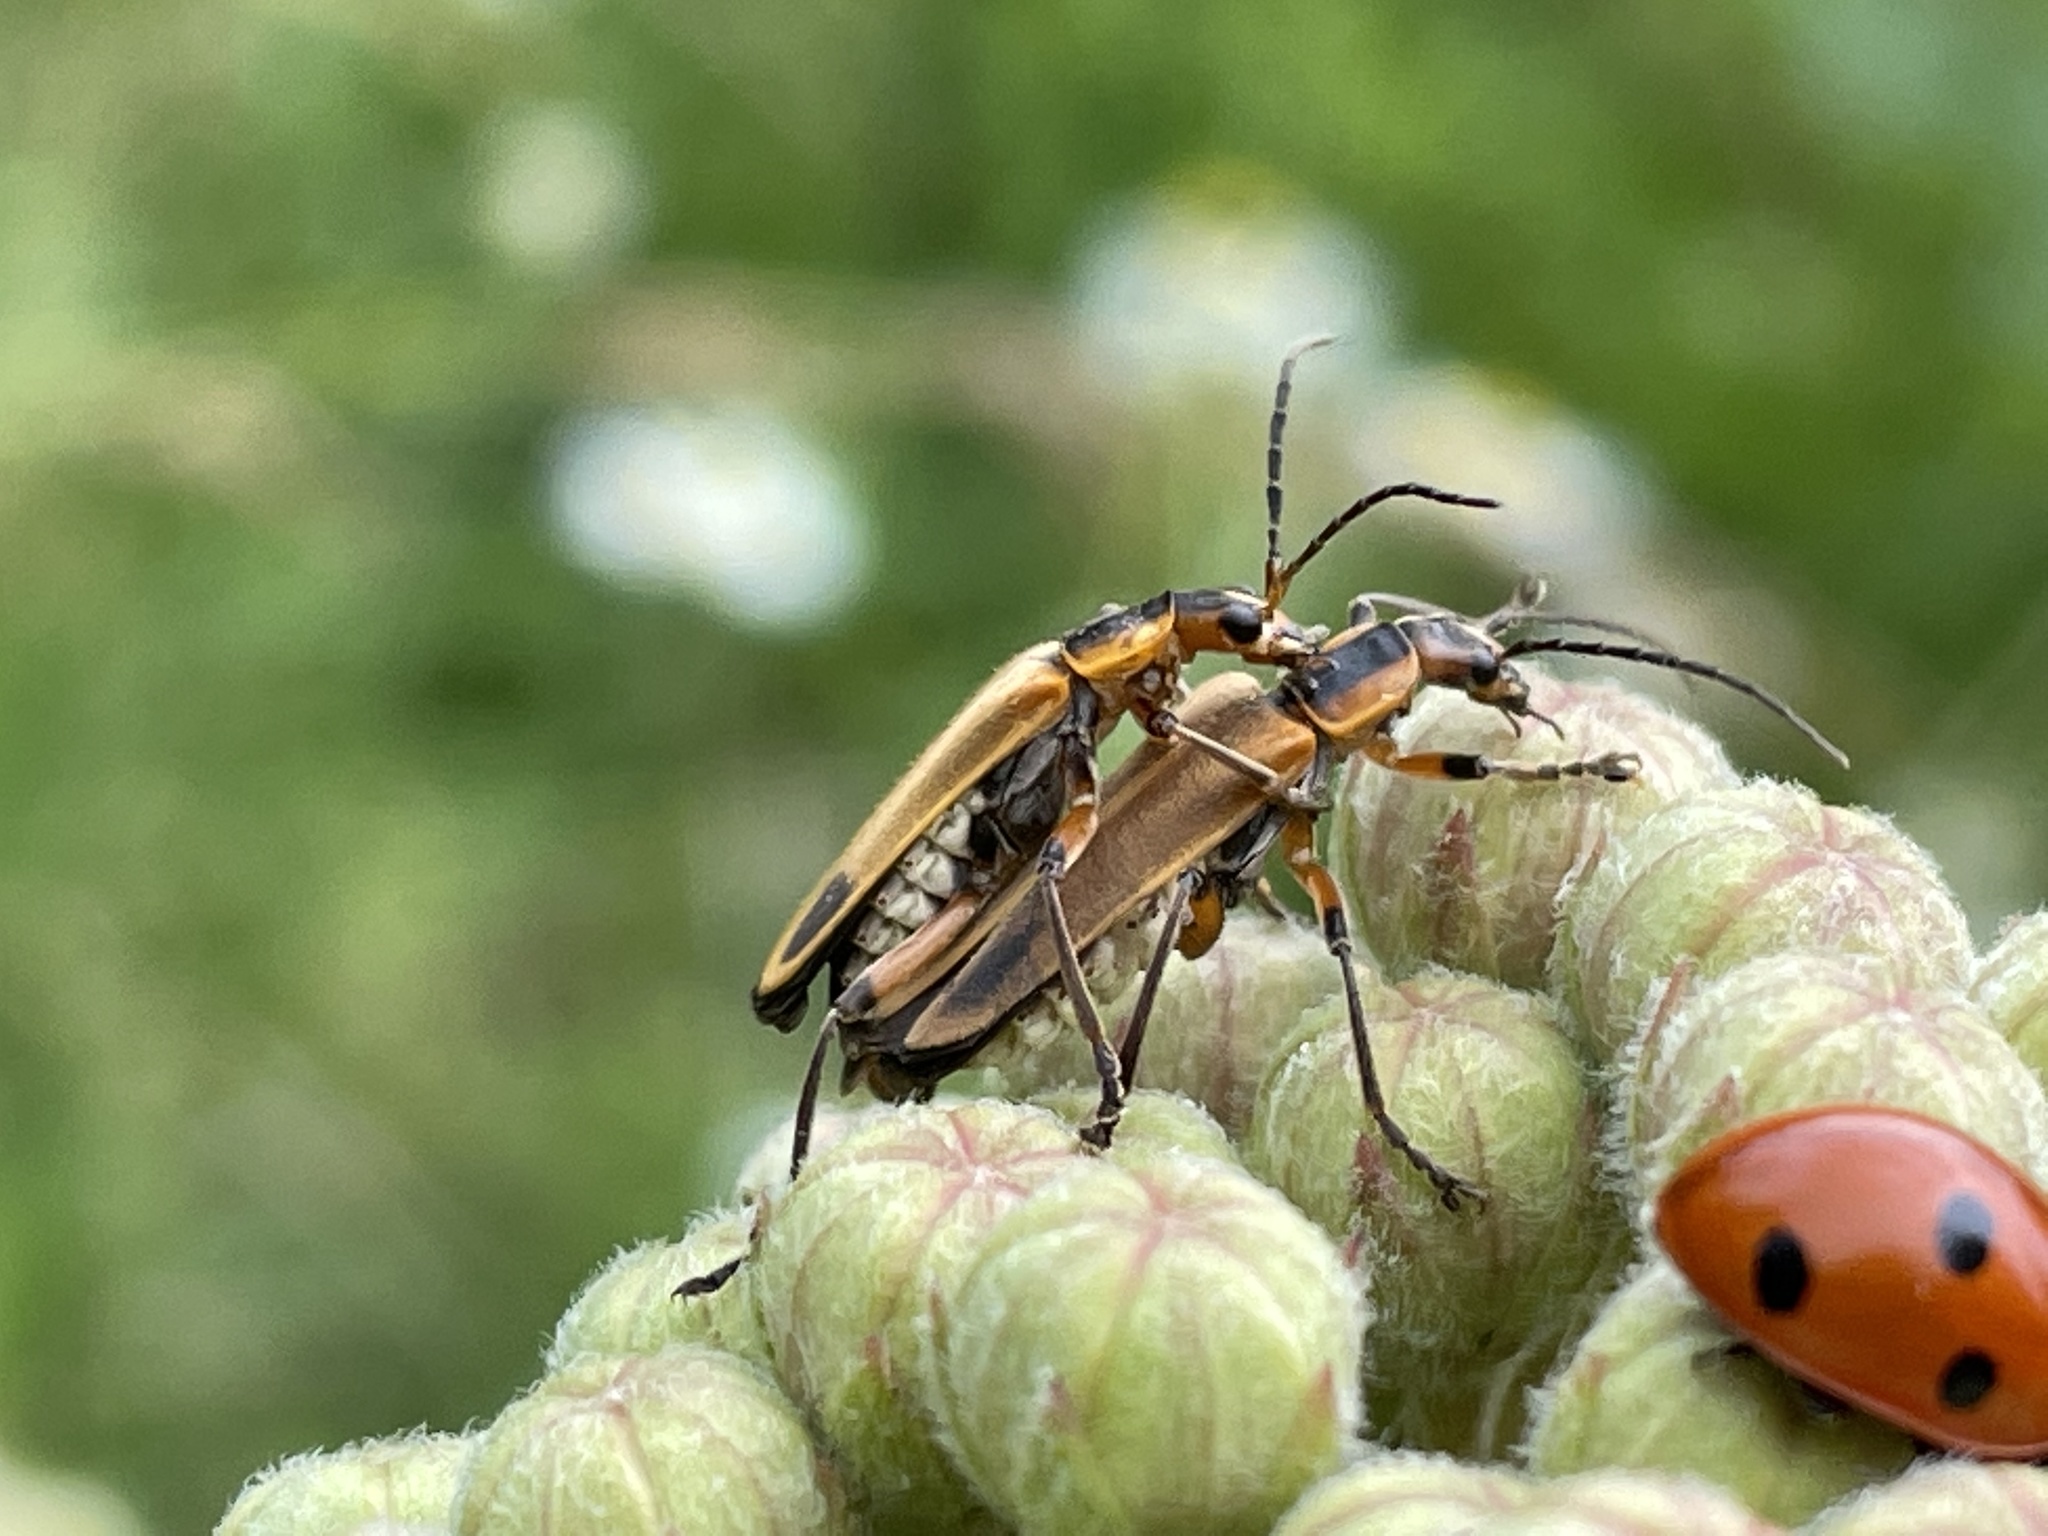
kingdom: Animalia
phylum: Arthropoda
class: Insecta
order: Coleoptera
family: Cantharidae
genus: Chauliognathus
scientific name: Chauliognathus marginatus
